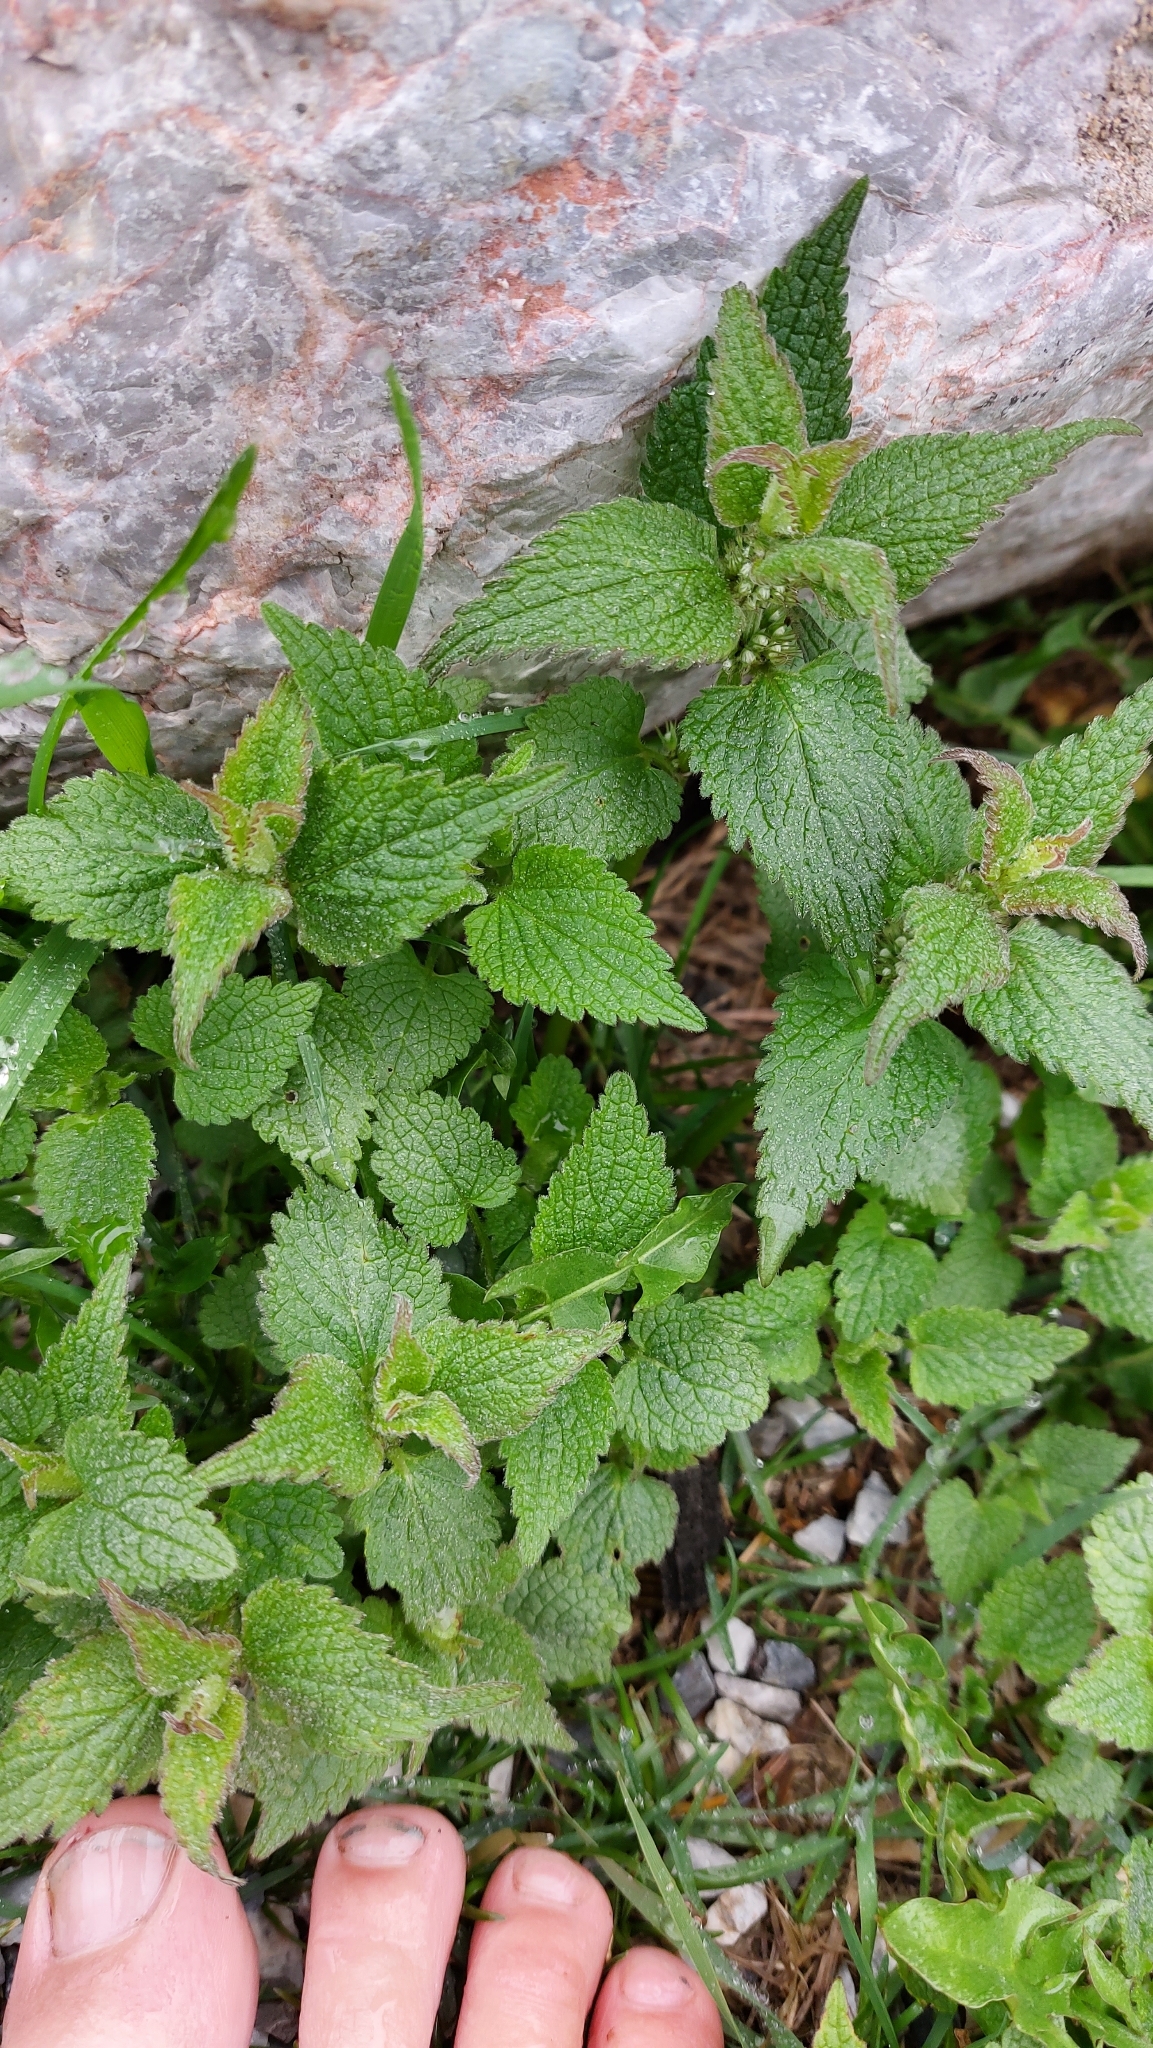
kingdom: Plantae
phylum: Tracheophyta
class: Magnoliopsida
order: Lamiales
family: Lamiaceae
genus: Lamium
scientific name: Lamium album
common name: White dead-nettle
